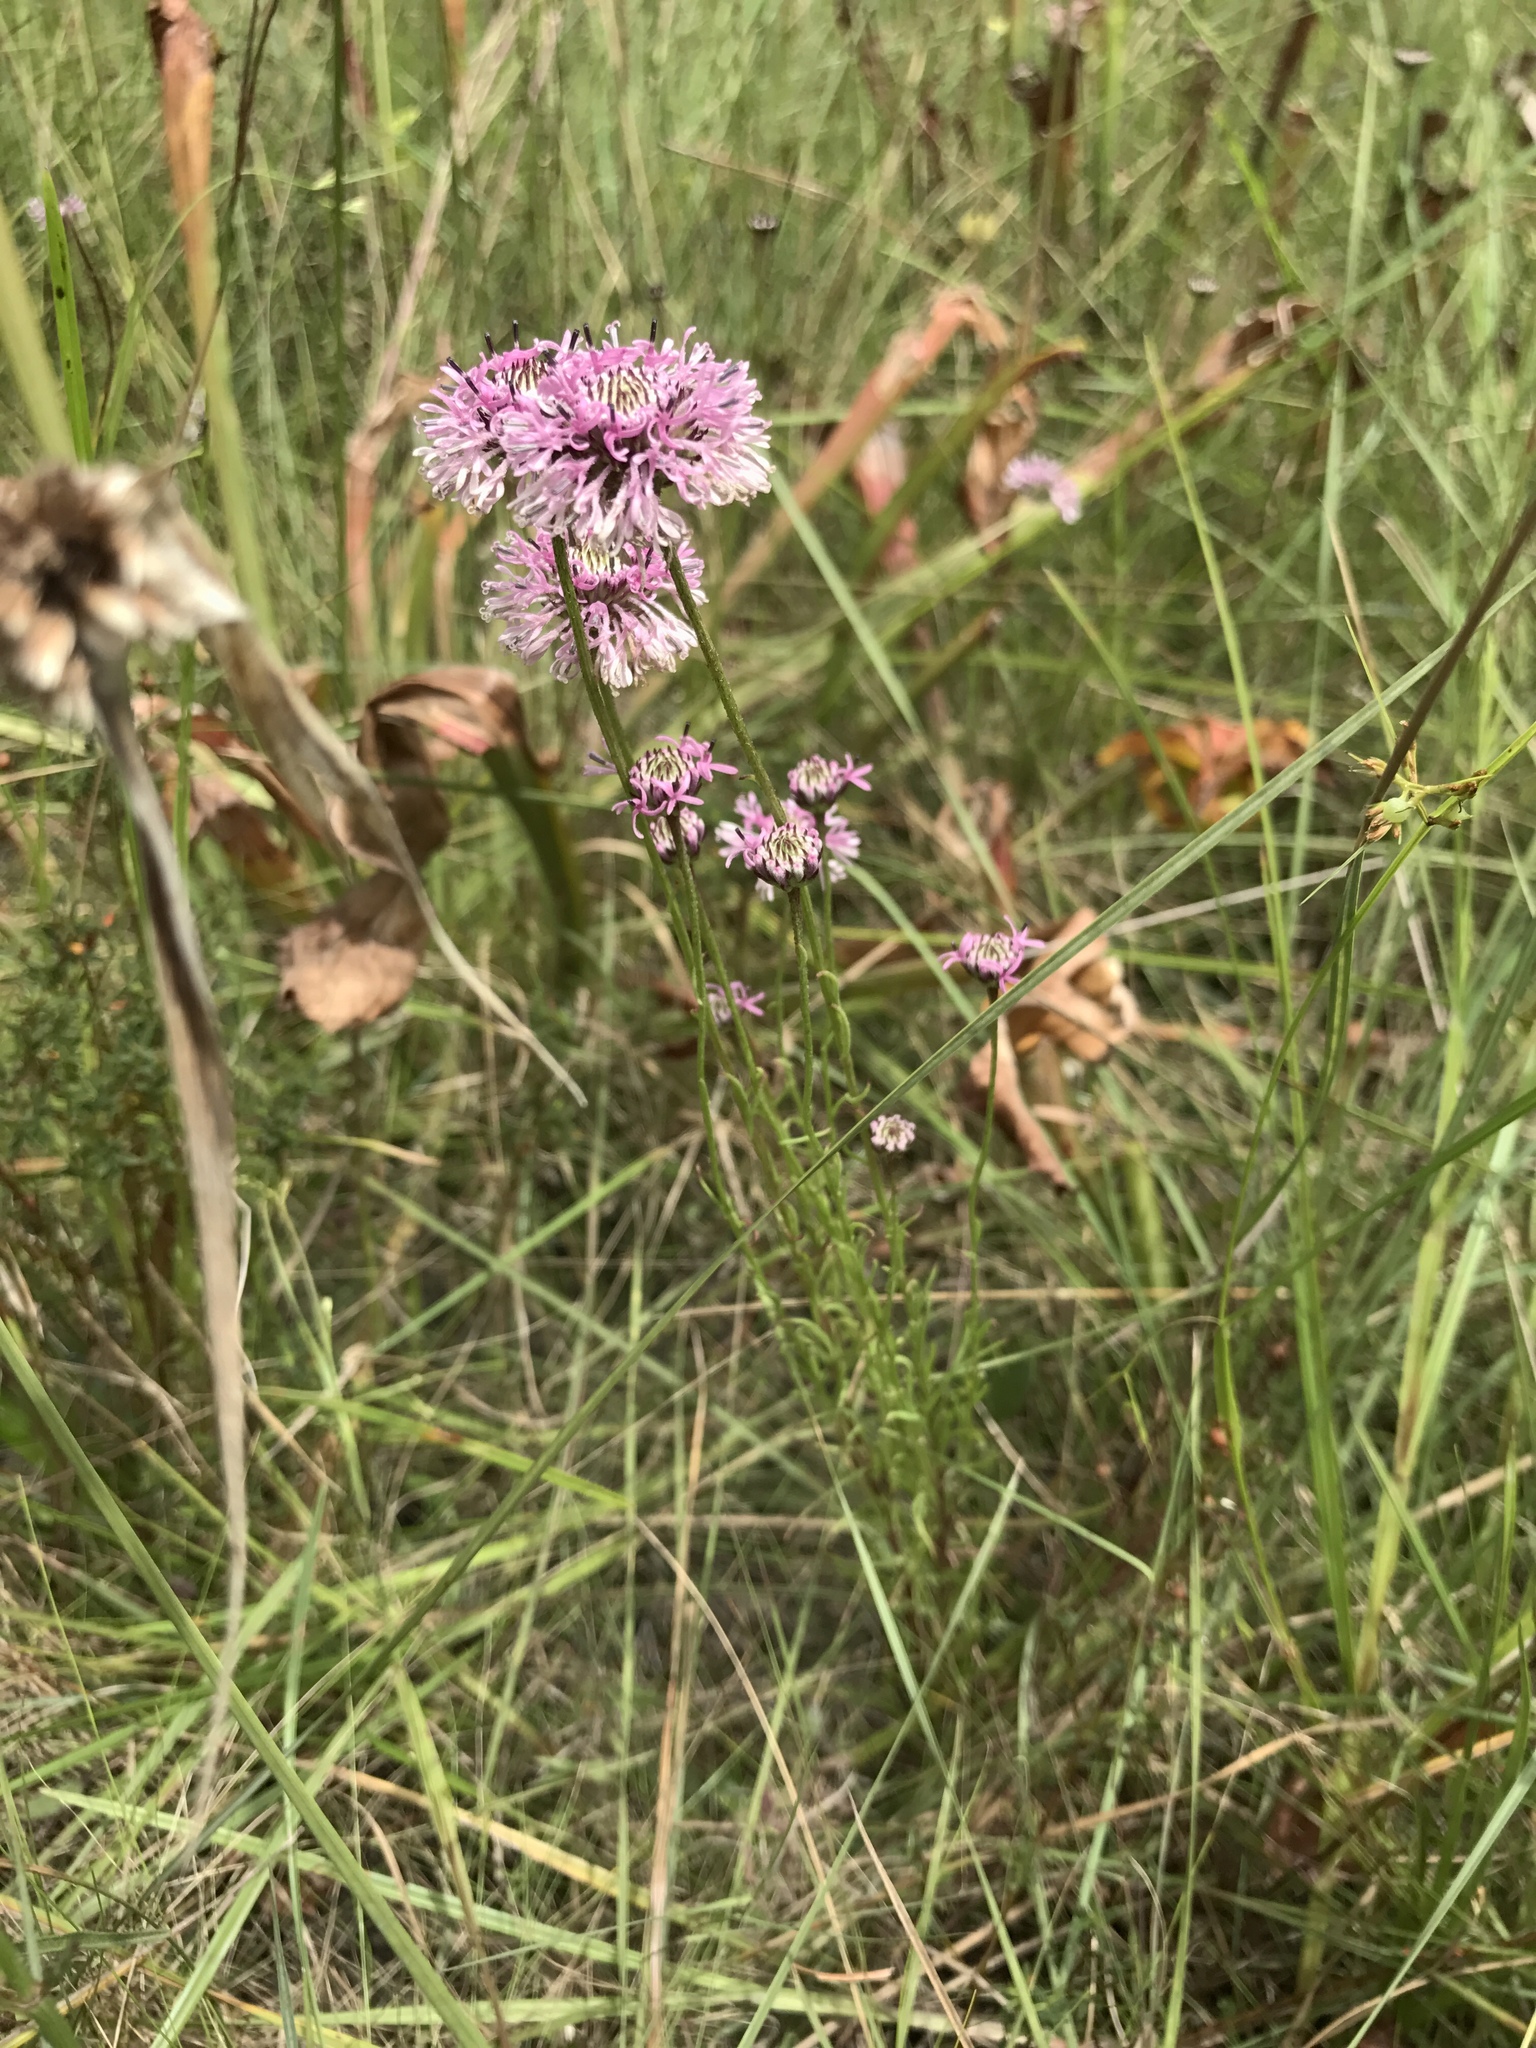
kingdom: Plantae
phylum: Tracheophyta
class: Magnoliopsida
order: Asterales
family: Asteraceae
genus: Marshallia
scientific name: Marshallia graminifolia
